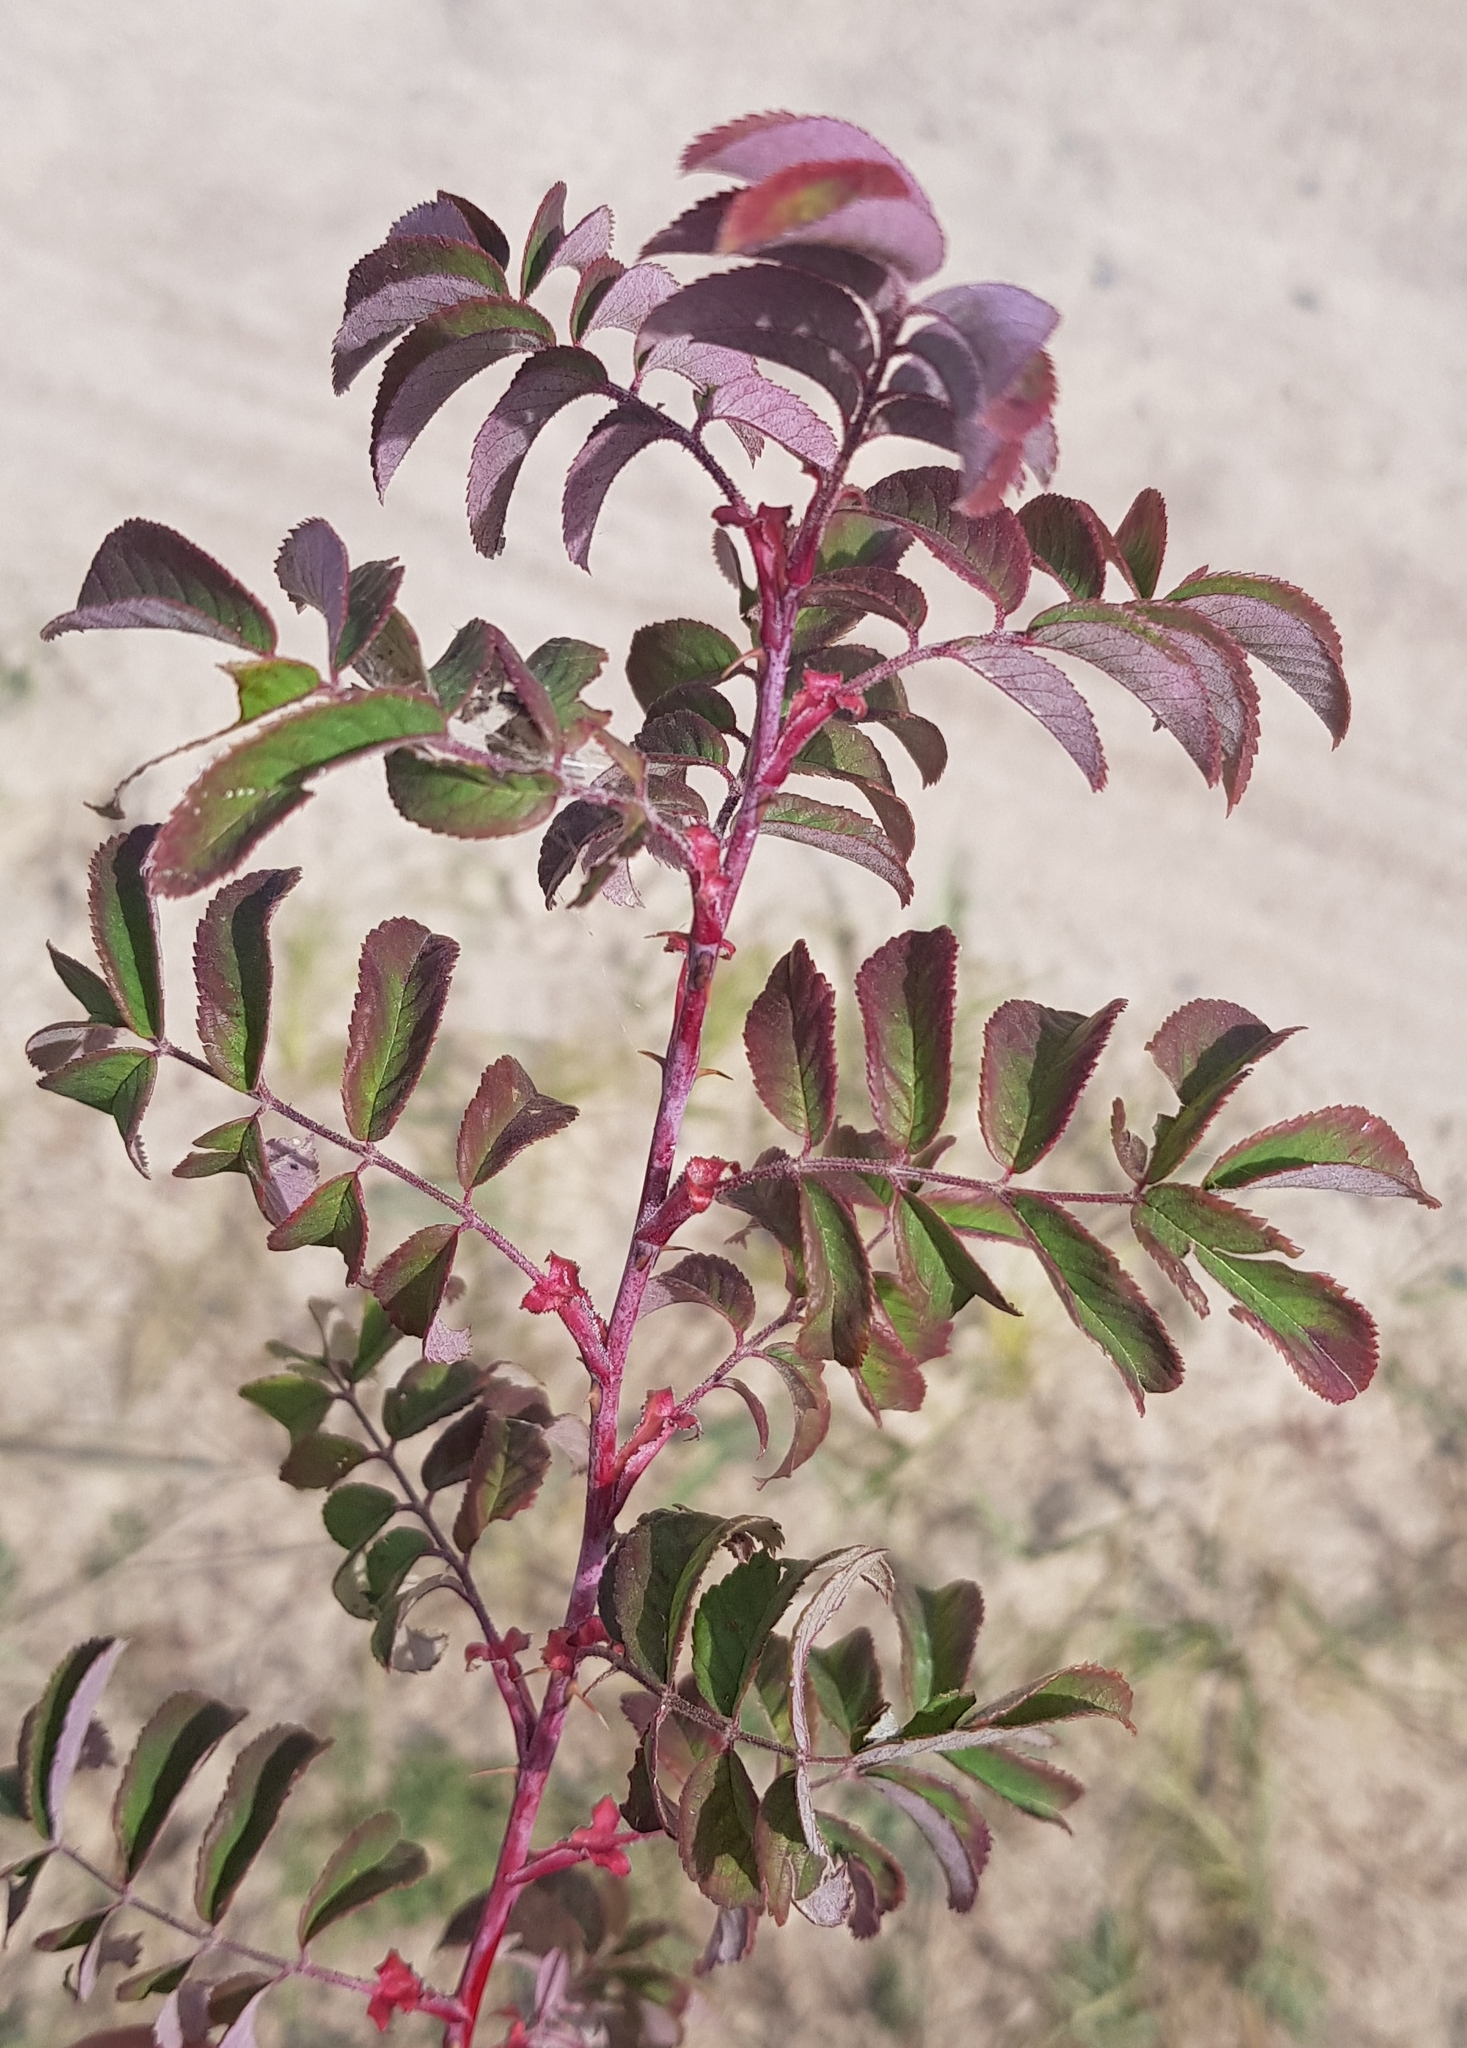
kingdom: Plantae
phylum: Tracheophyta
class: Magnoliopsida
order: Rosales
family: Rosaceae
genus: Rosa
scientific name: Rosa davurica
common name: Amur rose
